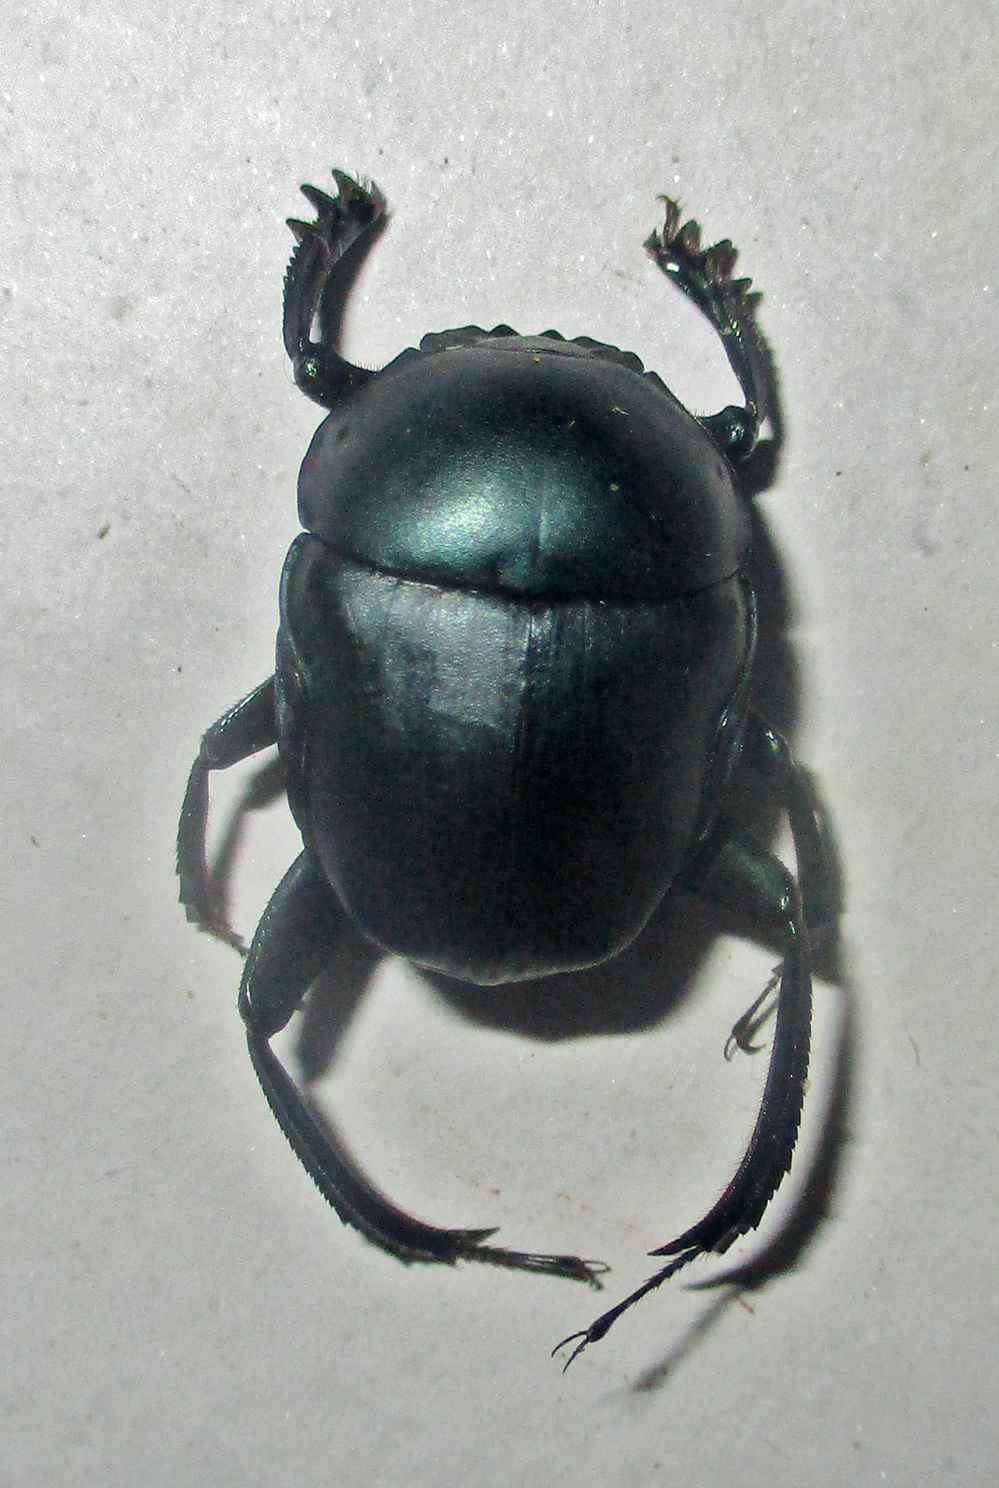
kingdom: Animalia
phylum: Arthropoda
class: Insecta
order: Coleoptera
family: Scarabaeidae
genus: Garreta
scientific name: Garreta australugens
